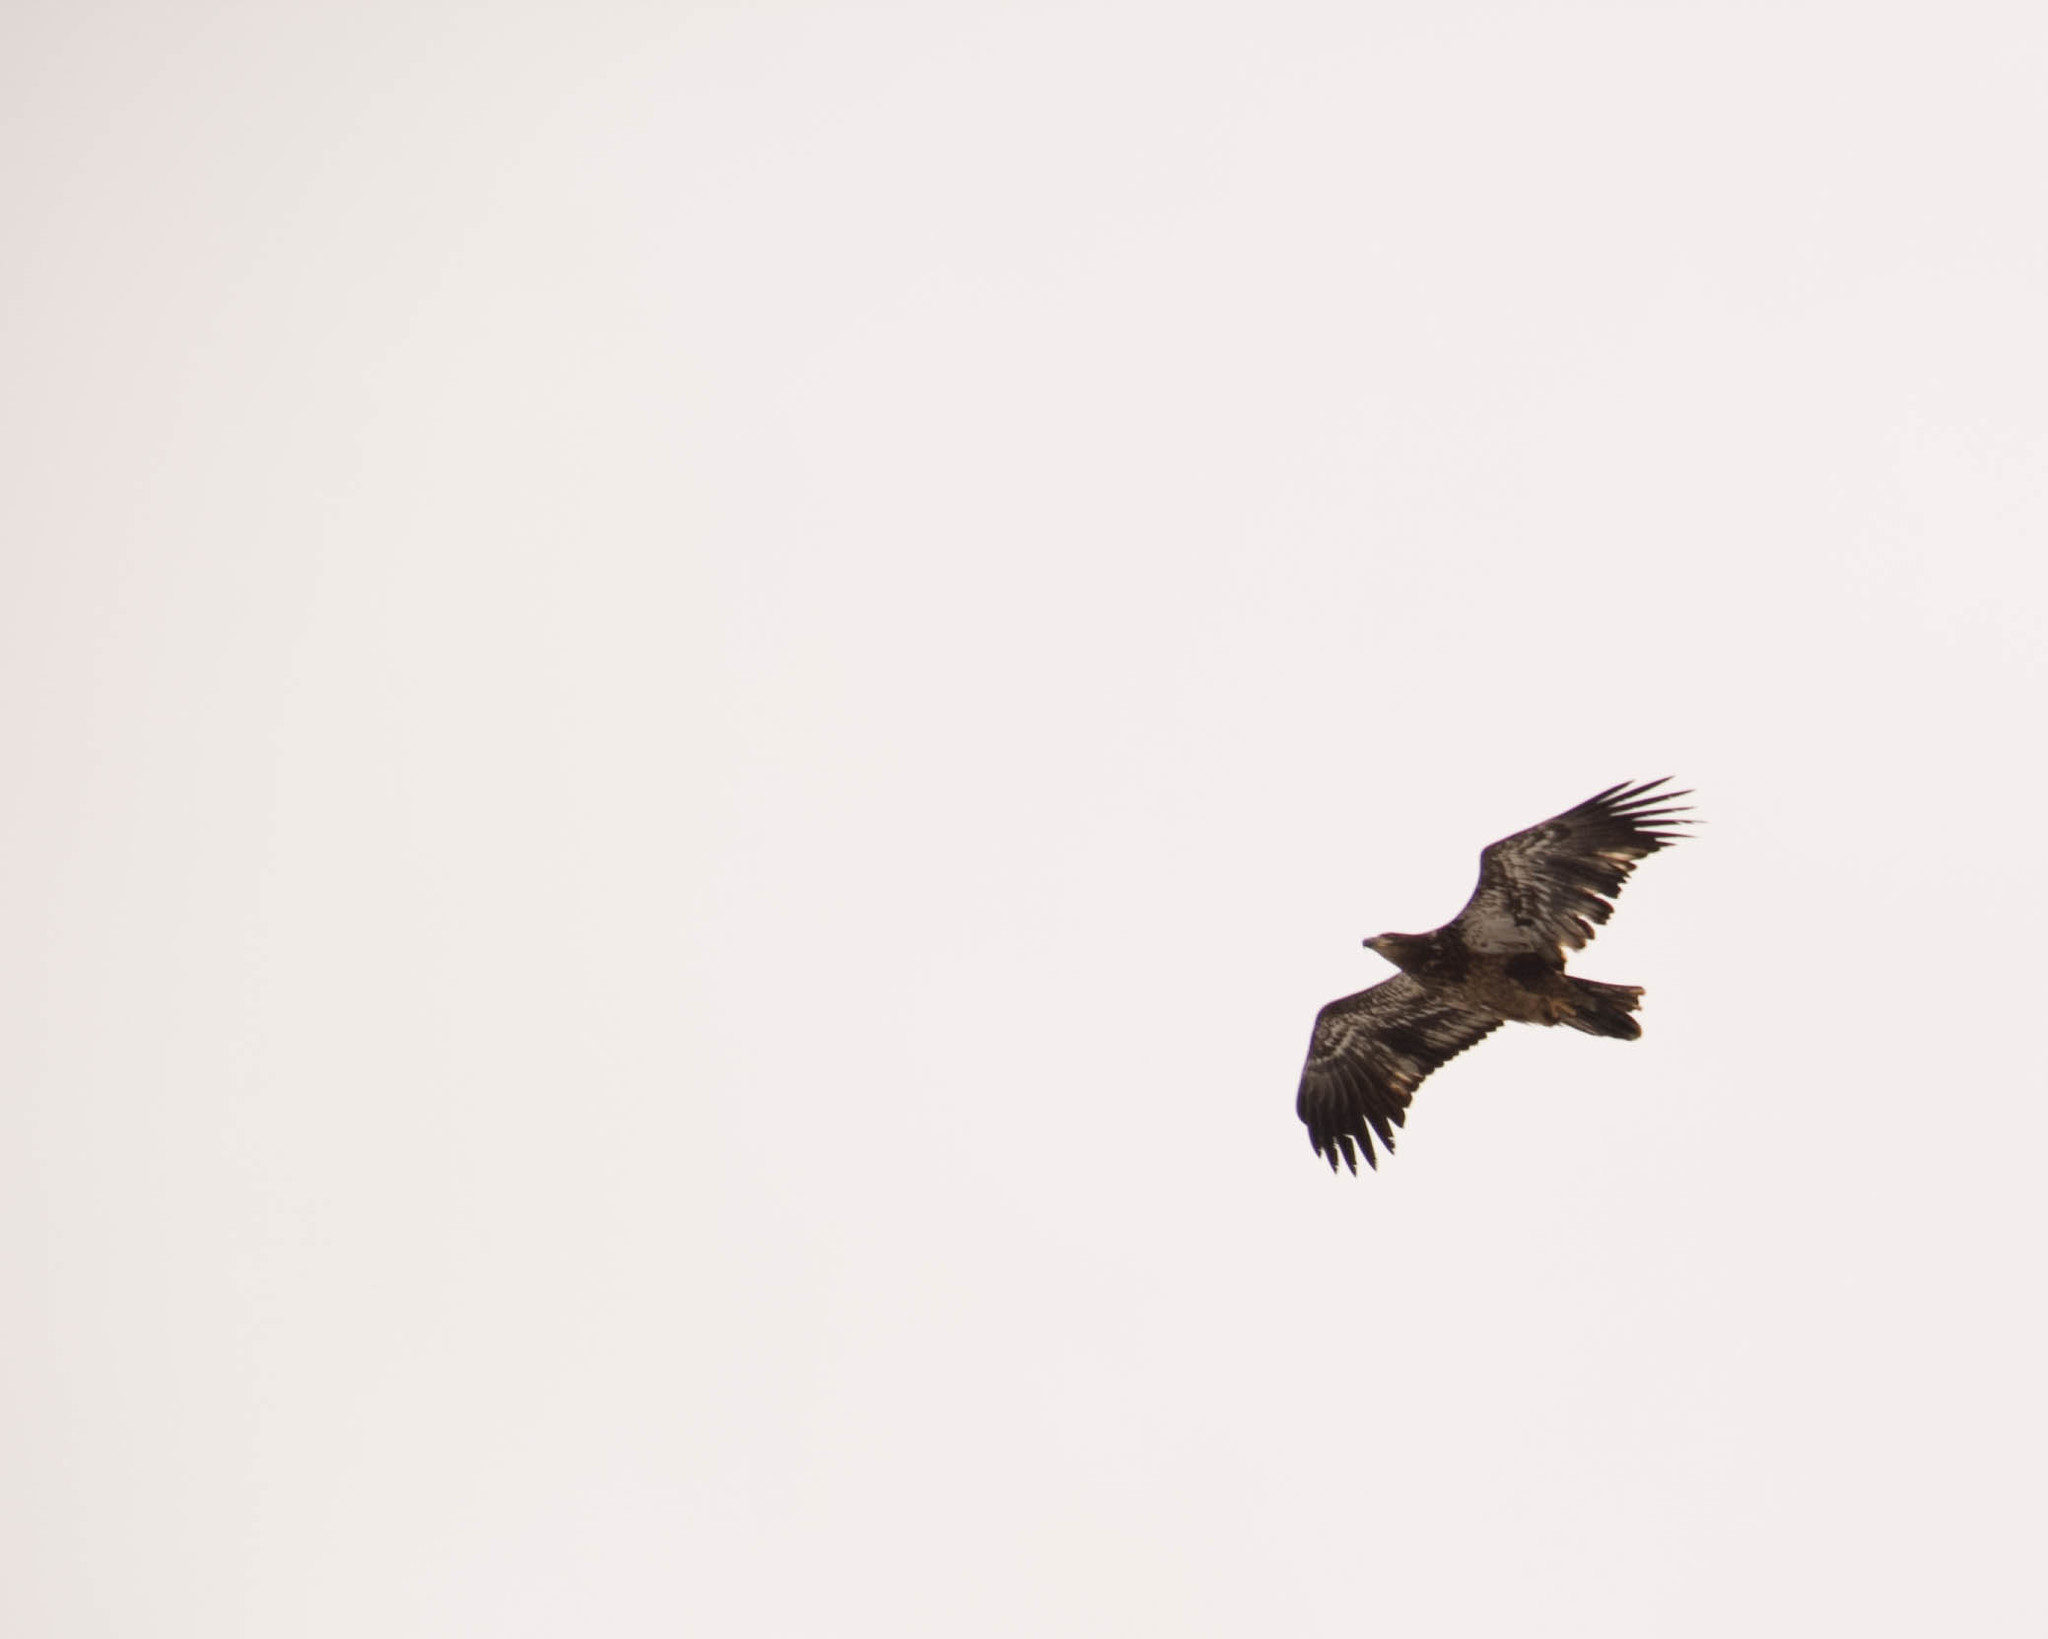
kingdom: Animalia
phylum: Chordata
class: Aves
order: Accipitriformes
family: Accipitridae
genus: Haliaeetus
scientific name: Haliaeetus leucocephalus
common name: Bald eagle
